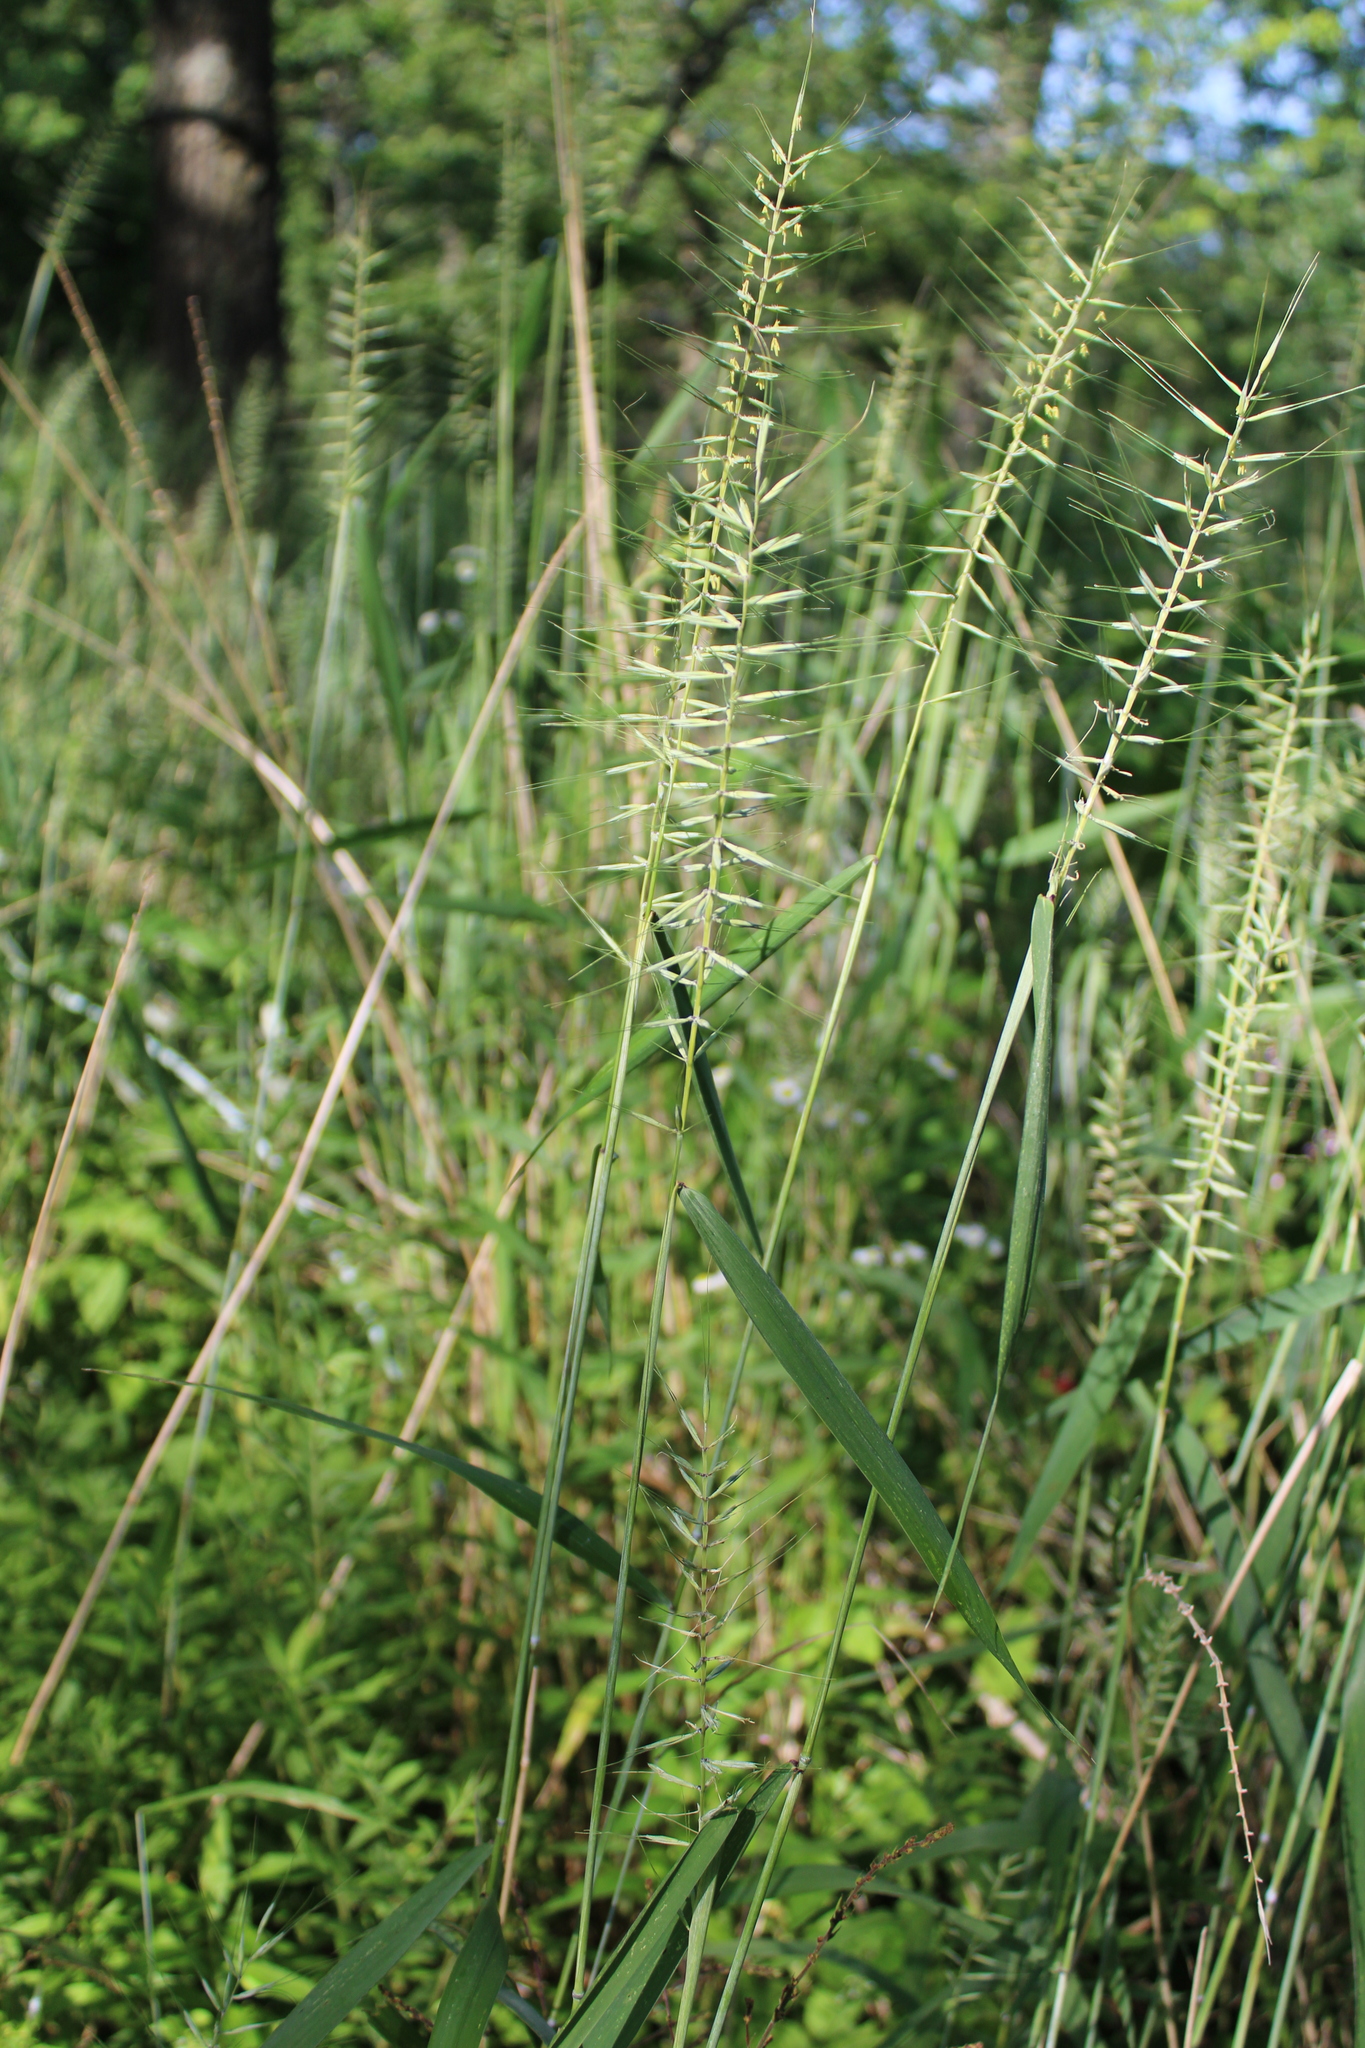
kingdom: Plantae
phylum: Tracheophyta
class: Liliopsida
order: Poales
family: Poaceae
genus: Elymus
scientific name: Elymus hystrix
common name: Bottlebrush grass
